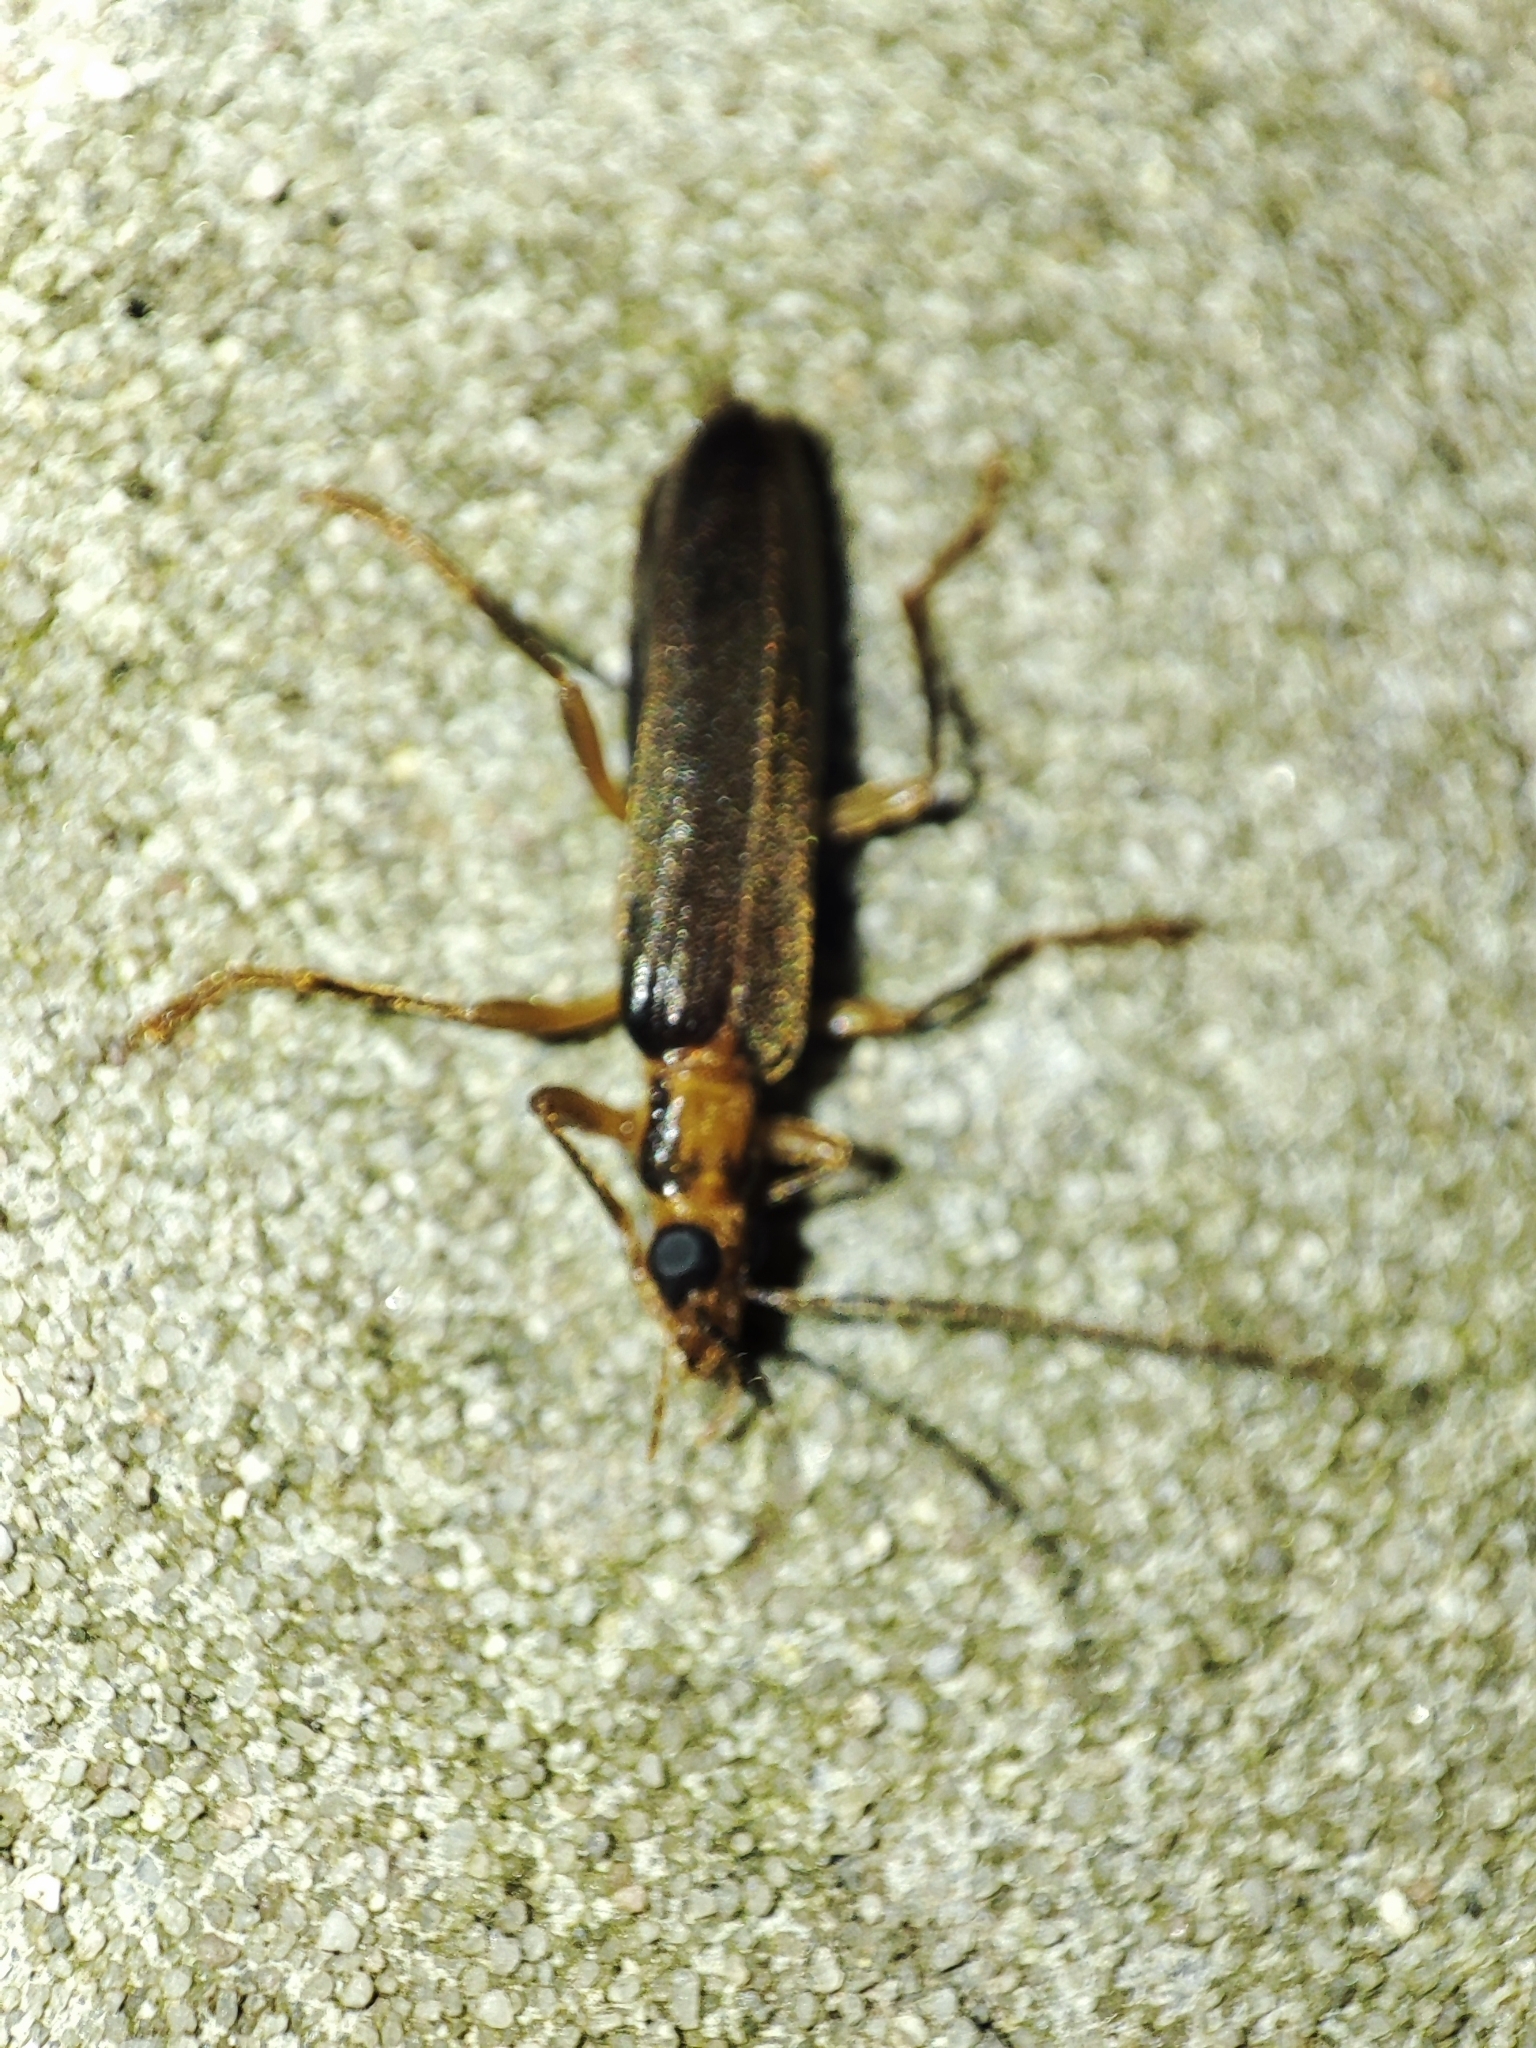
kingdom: Animalia
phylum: Arthropoda
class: Insecta
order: Coleoptera
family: Oedemeridae
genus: Nacerdes
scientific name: Nacerdes carniolica
